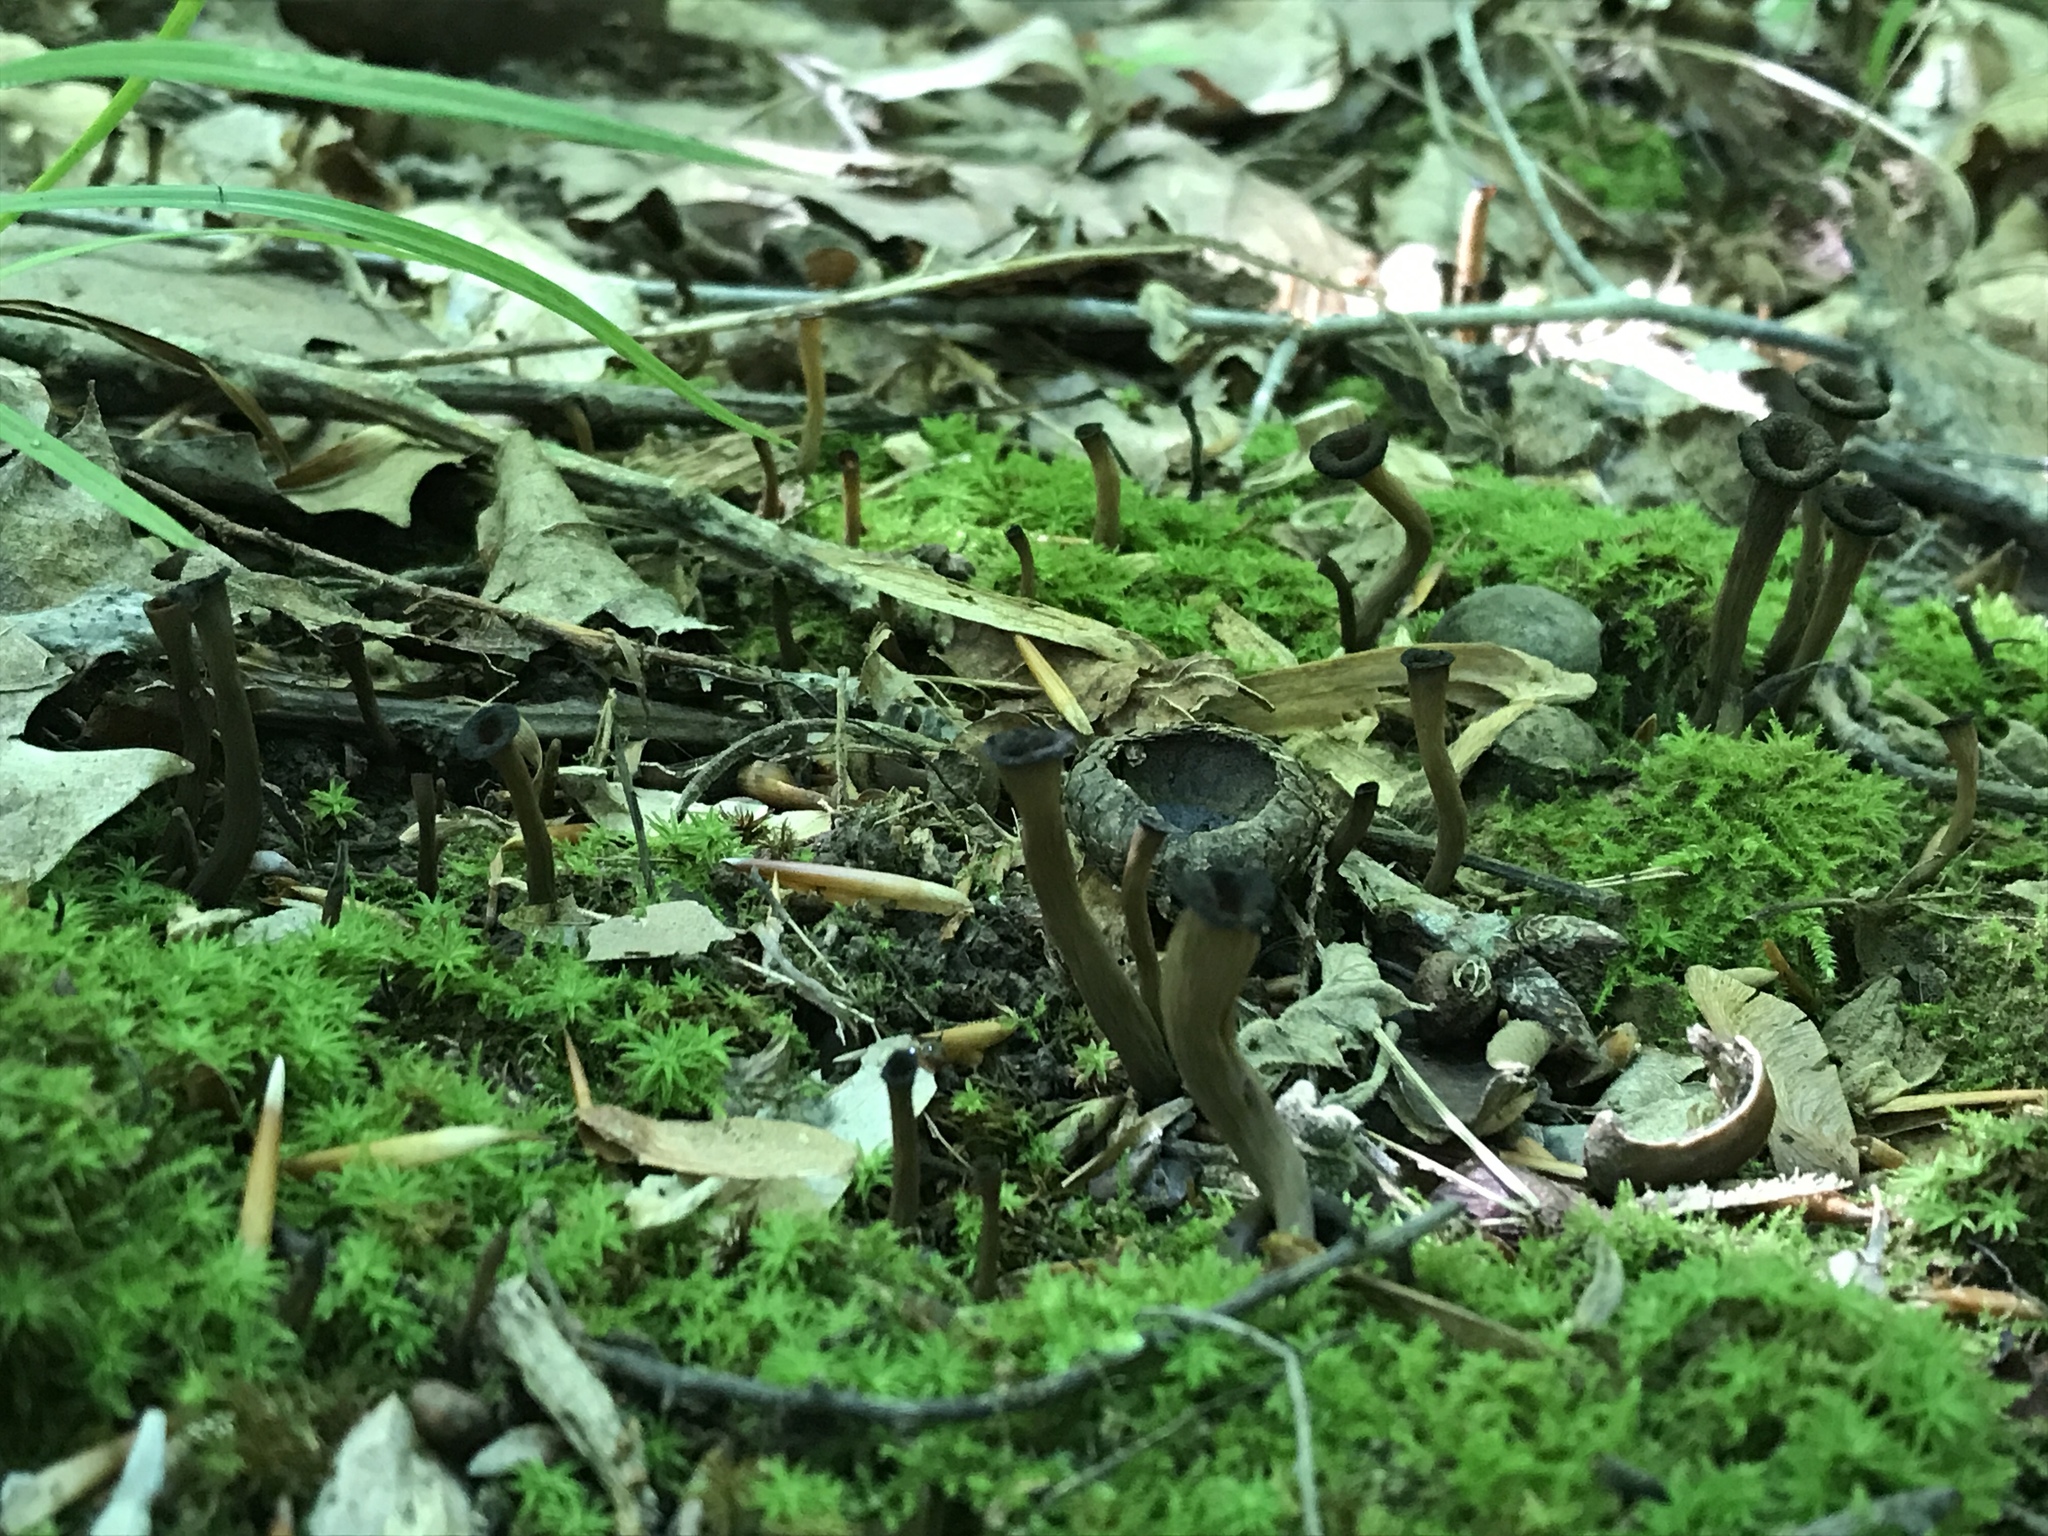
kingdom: Fungi
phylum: Basidiomycota
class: Agaricomycetes
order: Cantharellales
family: Hydnaceae
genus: Craterellus
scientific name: Craterellus cornucopioides
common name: Horn of plenty
